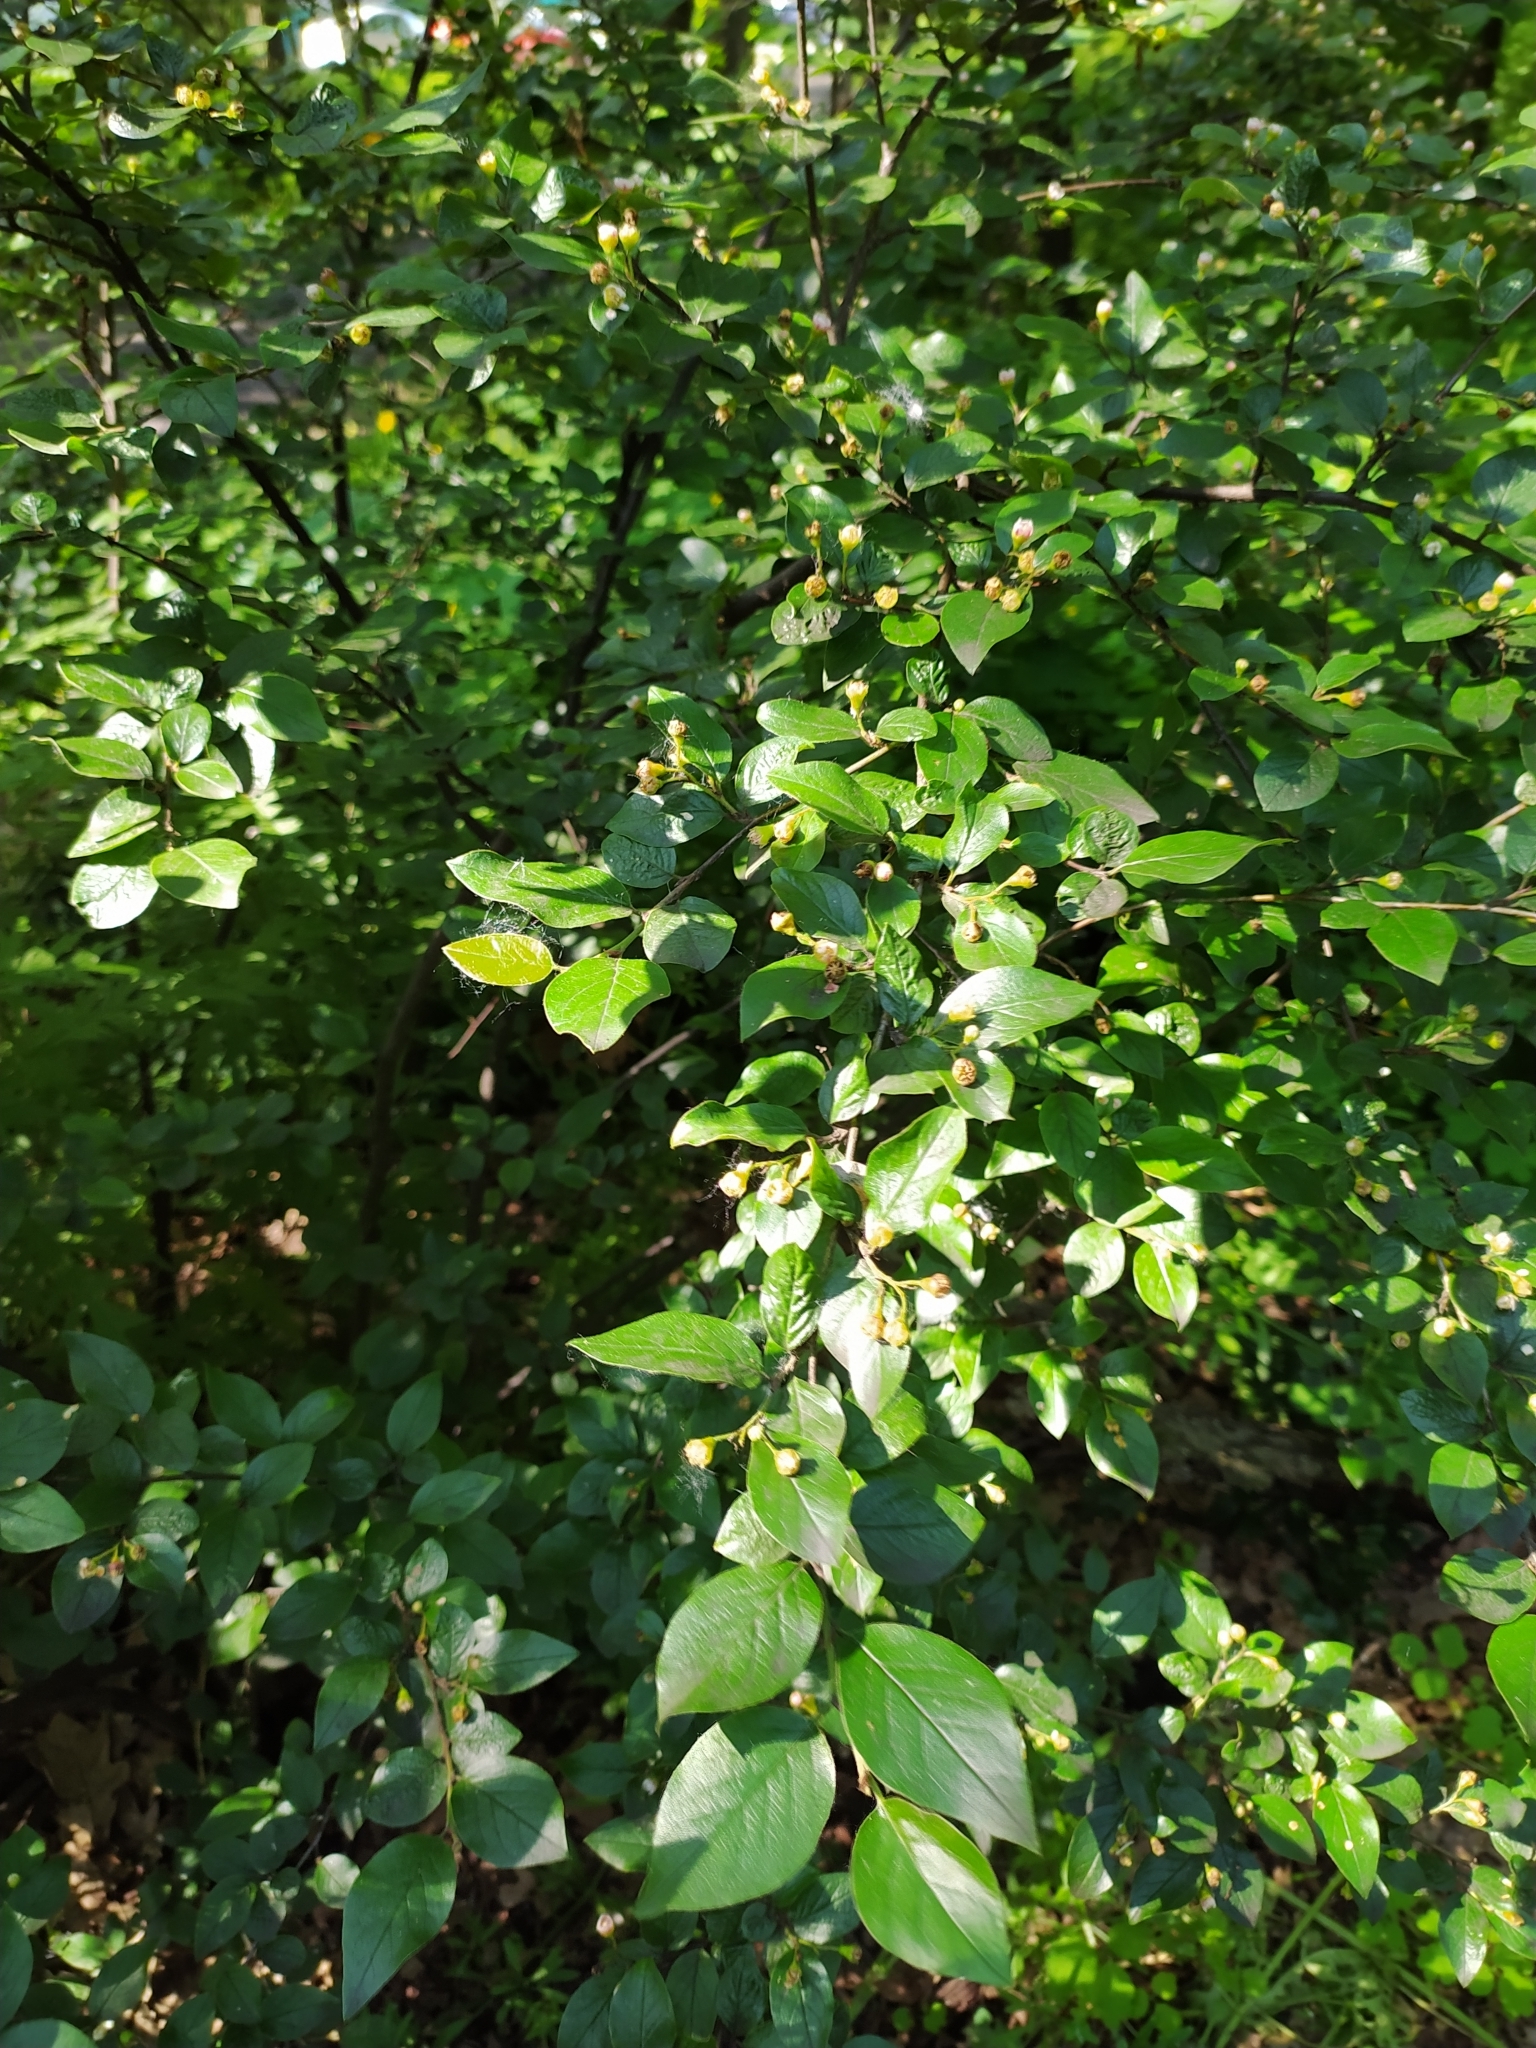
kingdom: Plantae
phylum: Tracheophyta
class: Magnoliopsida
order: Rosales
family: Rosaceae
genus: Cotoneaster
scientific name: Cotoneaster acutifolius
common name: Peking cotoneaster
